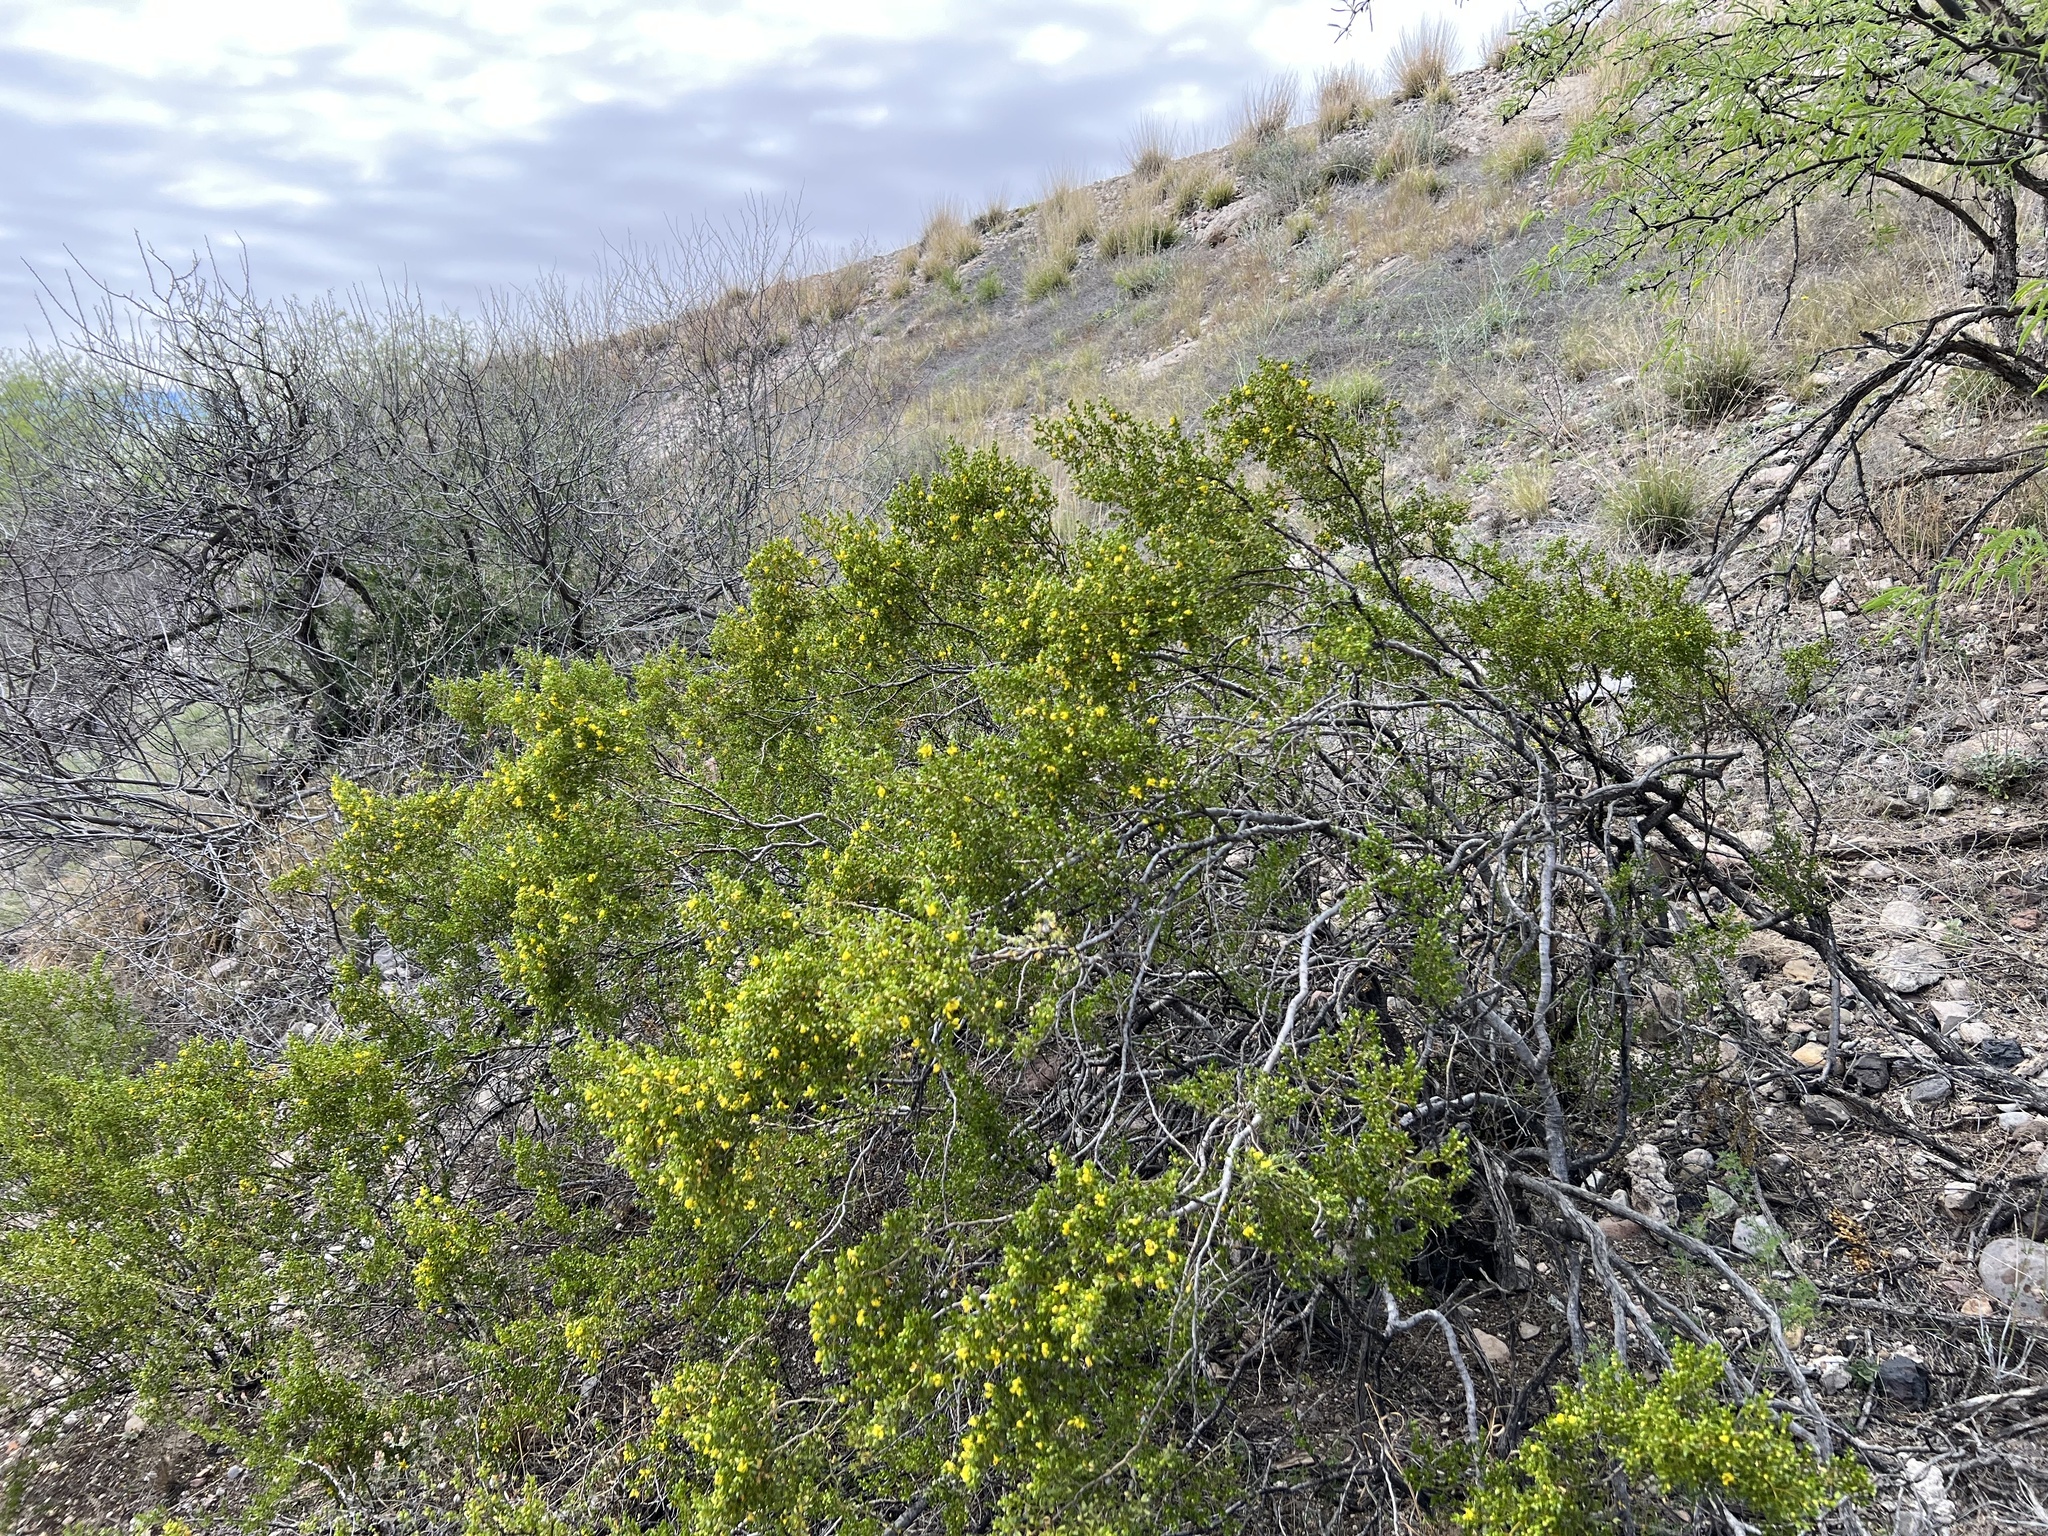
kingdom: Plantae
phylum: Tracheophyta
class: Magnoliopsida
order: Zygophyllales
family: Zygophyllaceae
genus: Larrea
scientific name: Larrea tridentata
